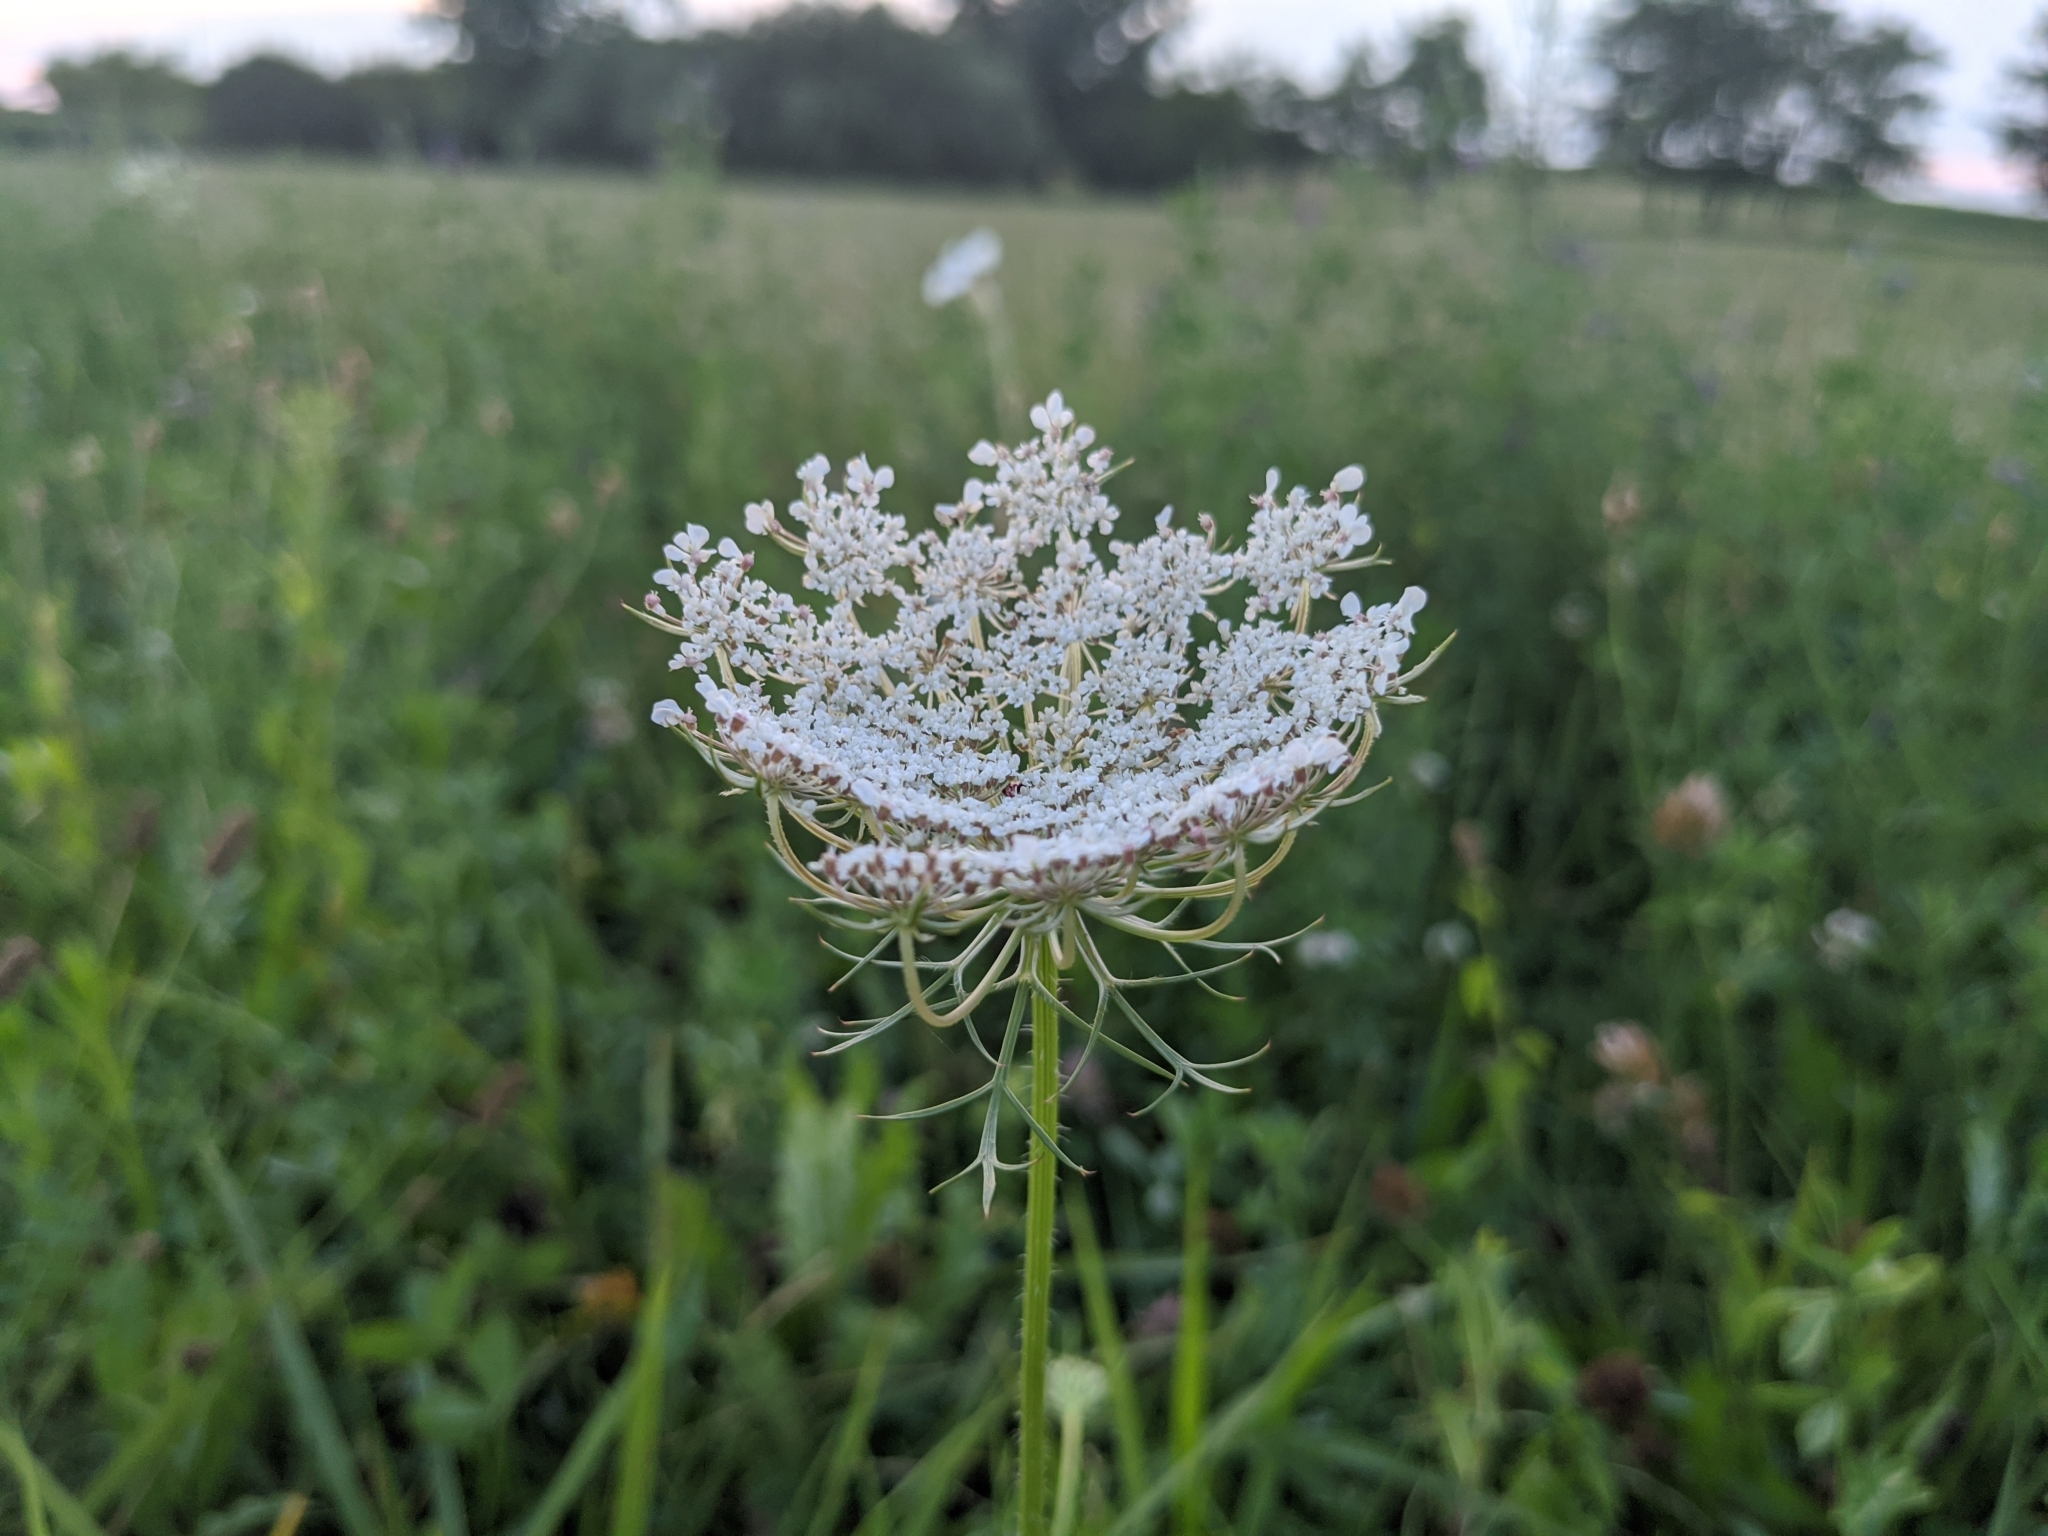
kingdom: Plantae
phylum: Tracheophyta
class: Magnoliopsida
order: Apiales
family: Apiaceae
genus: Daucus
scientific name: Daucus carota
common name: Wild carrot
